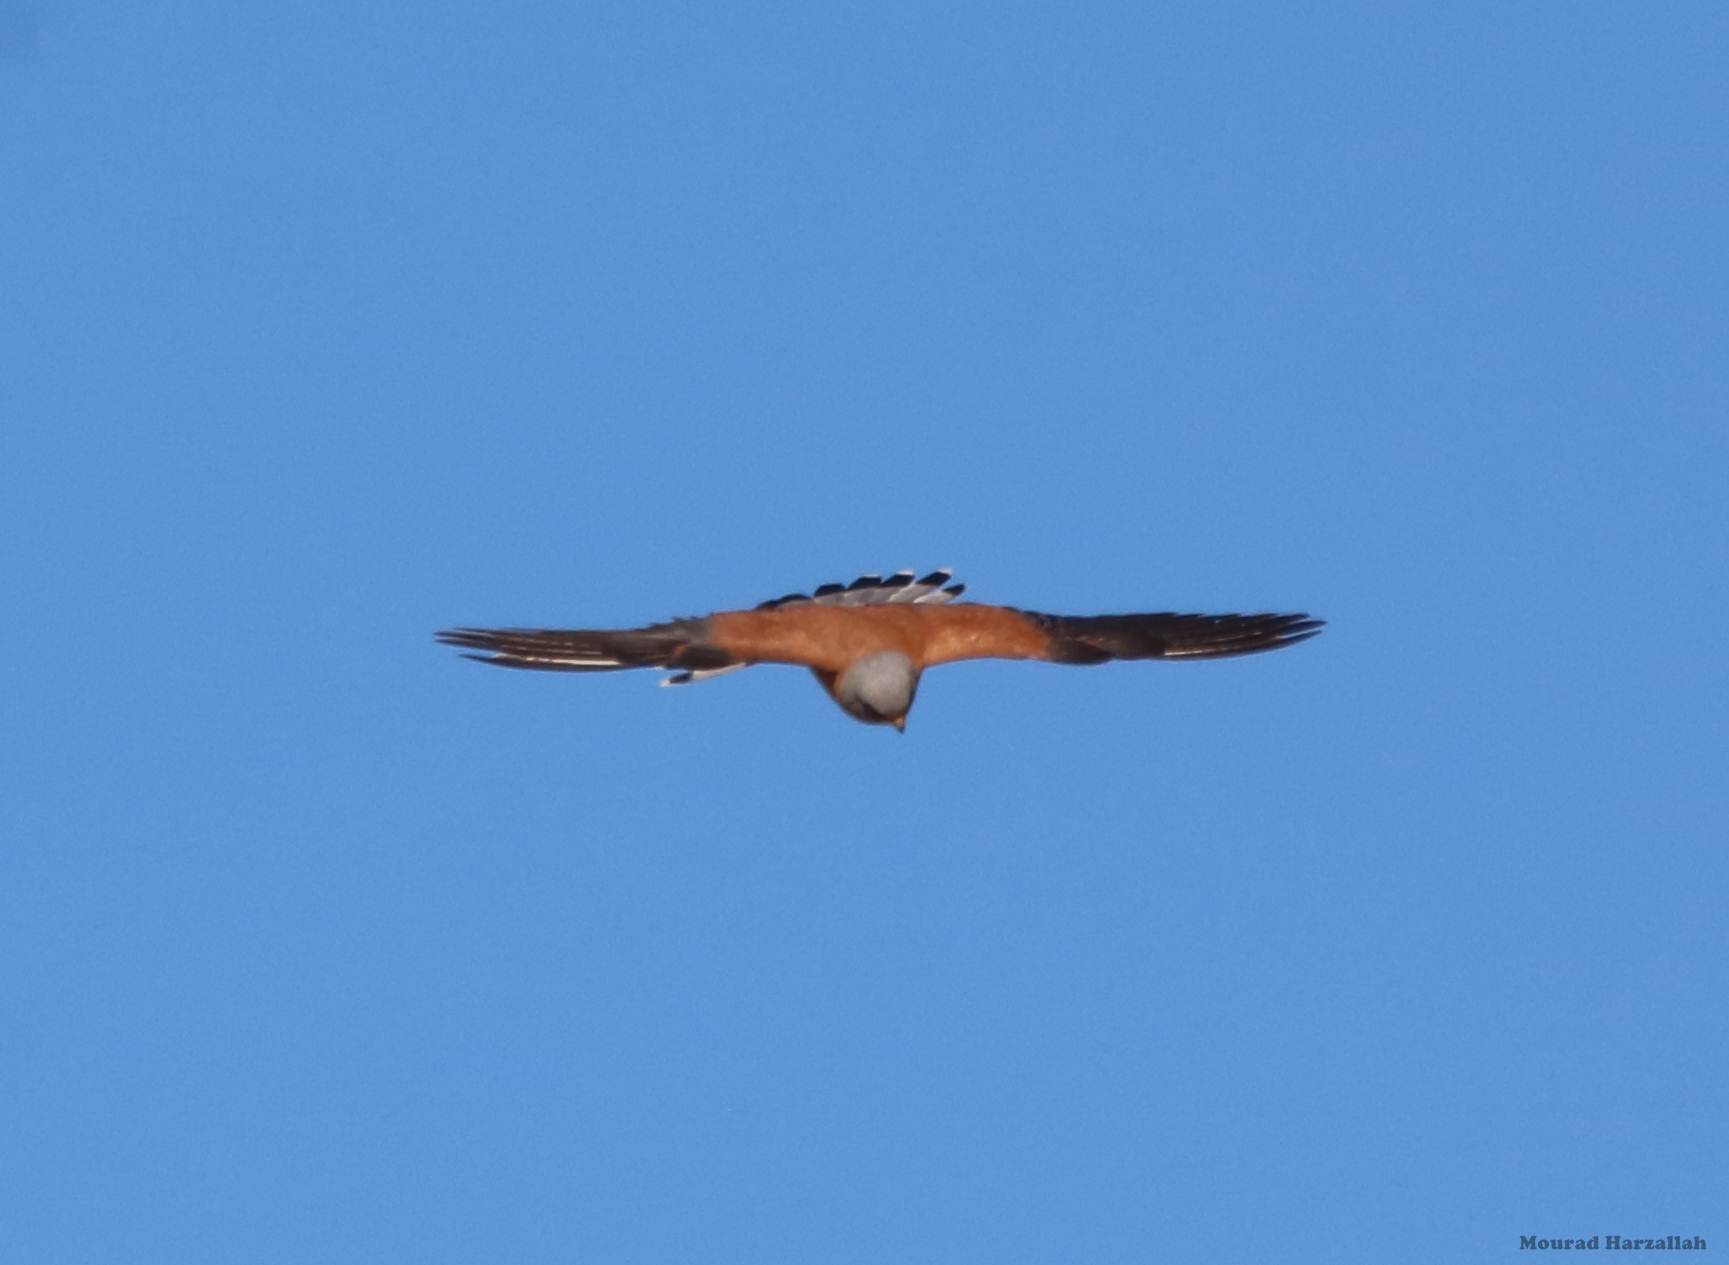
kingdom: Animalia
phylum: Chordata
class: Aves
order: Falconiformes
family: Falconidae
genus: Falco
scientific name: Falco naumanni
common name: Lesser kestrel
